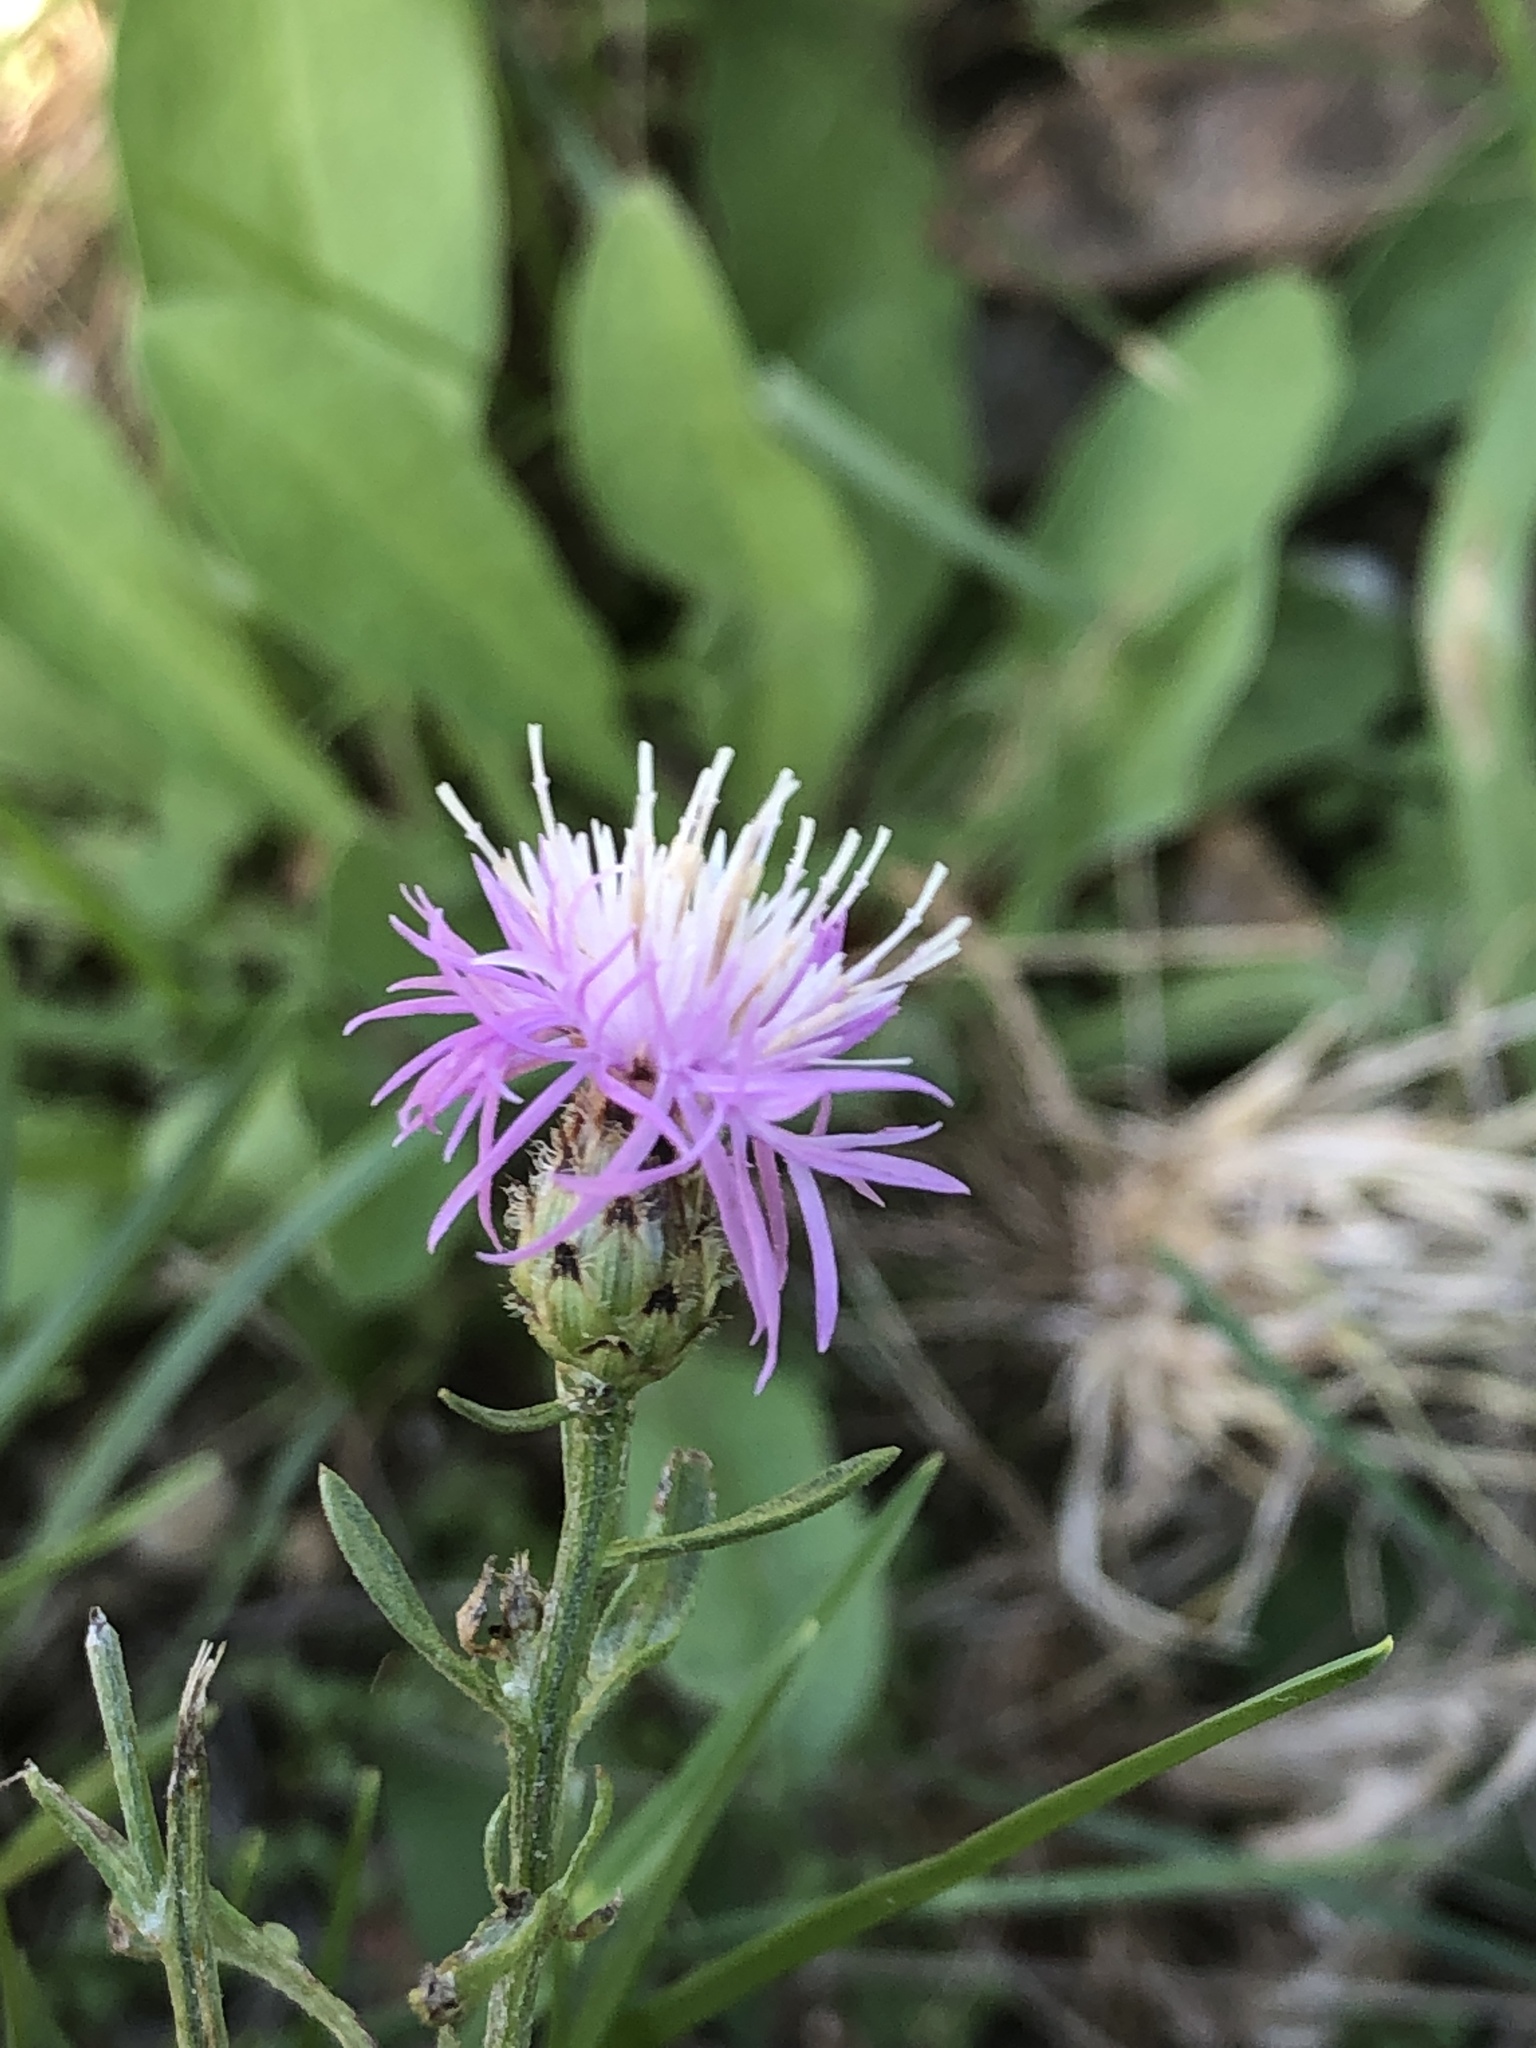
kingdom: Plantae
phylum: Tracheophyta
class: Magnoliopsida
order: Asterales
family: Asteraceae
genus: Centaurea
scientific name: Centaurea stoebe
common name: Spotted knapweed
